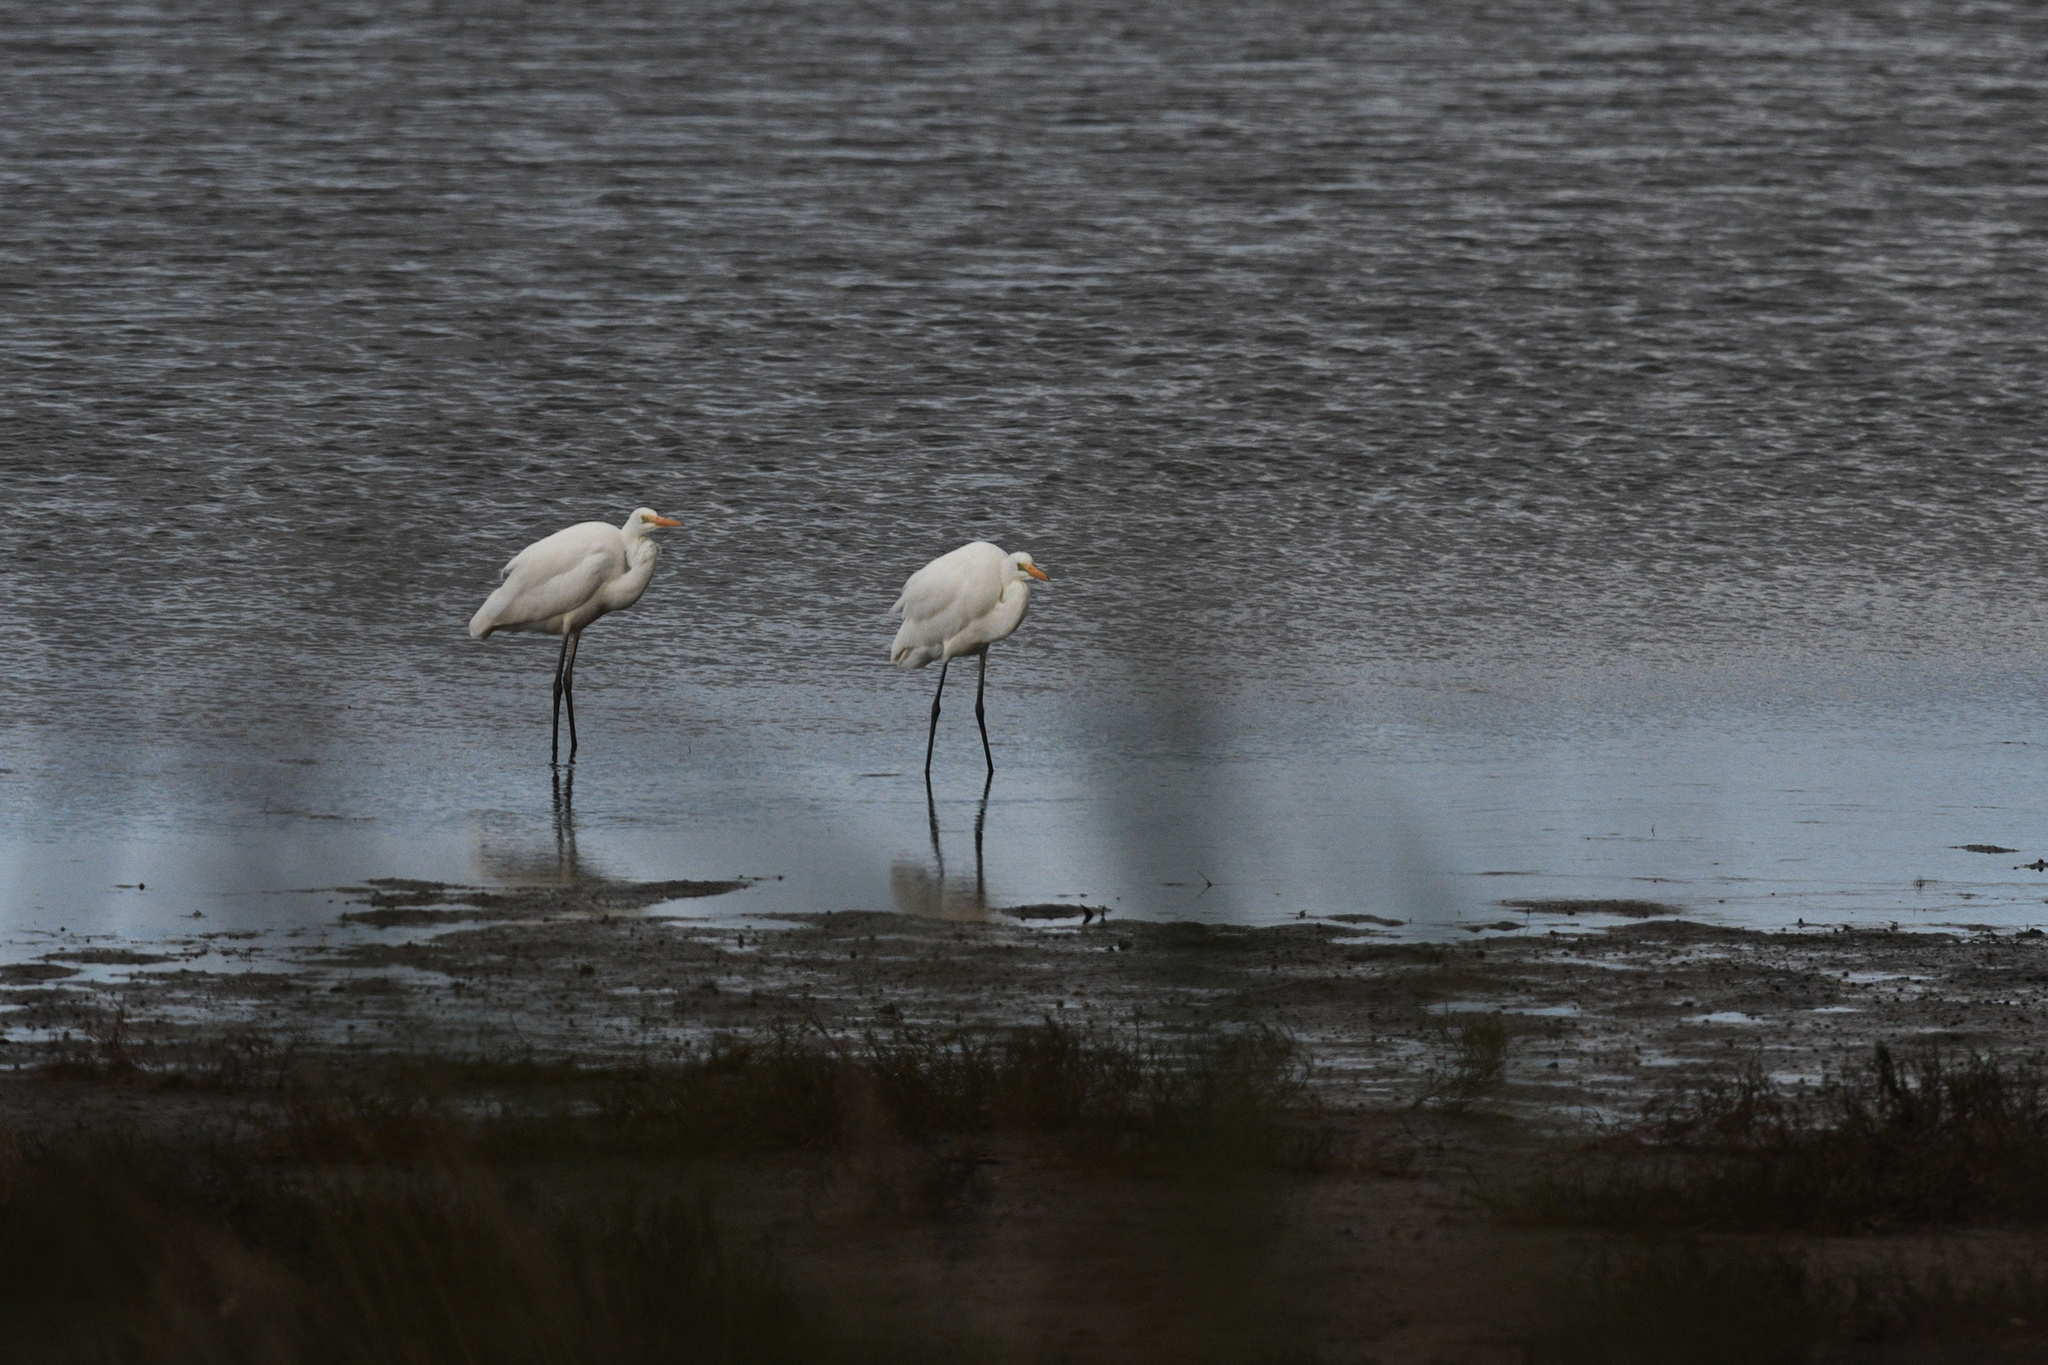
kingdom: Animalia
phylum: Chordata
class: Aves
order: Pelecaniformes
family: Ardeidae
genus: Ardea
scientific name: Ardea alba
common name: Great egret
